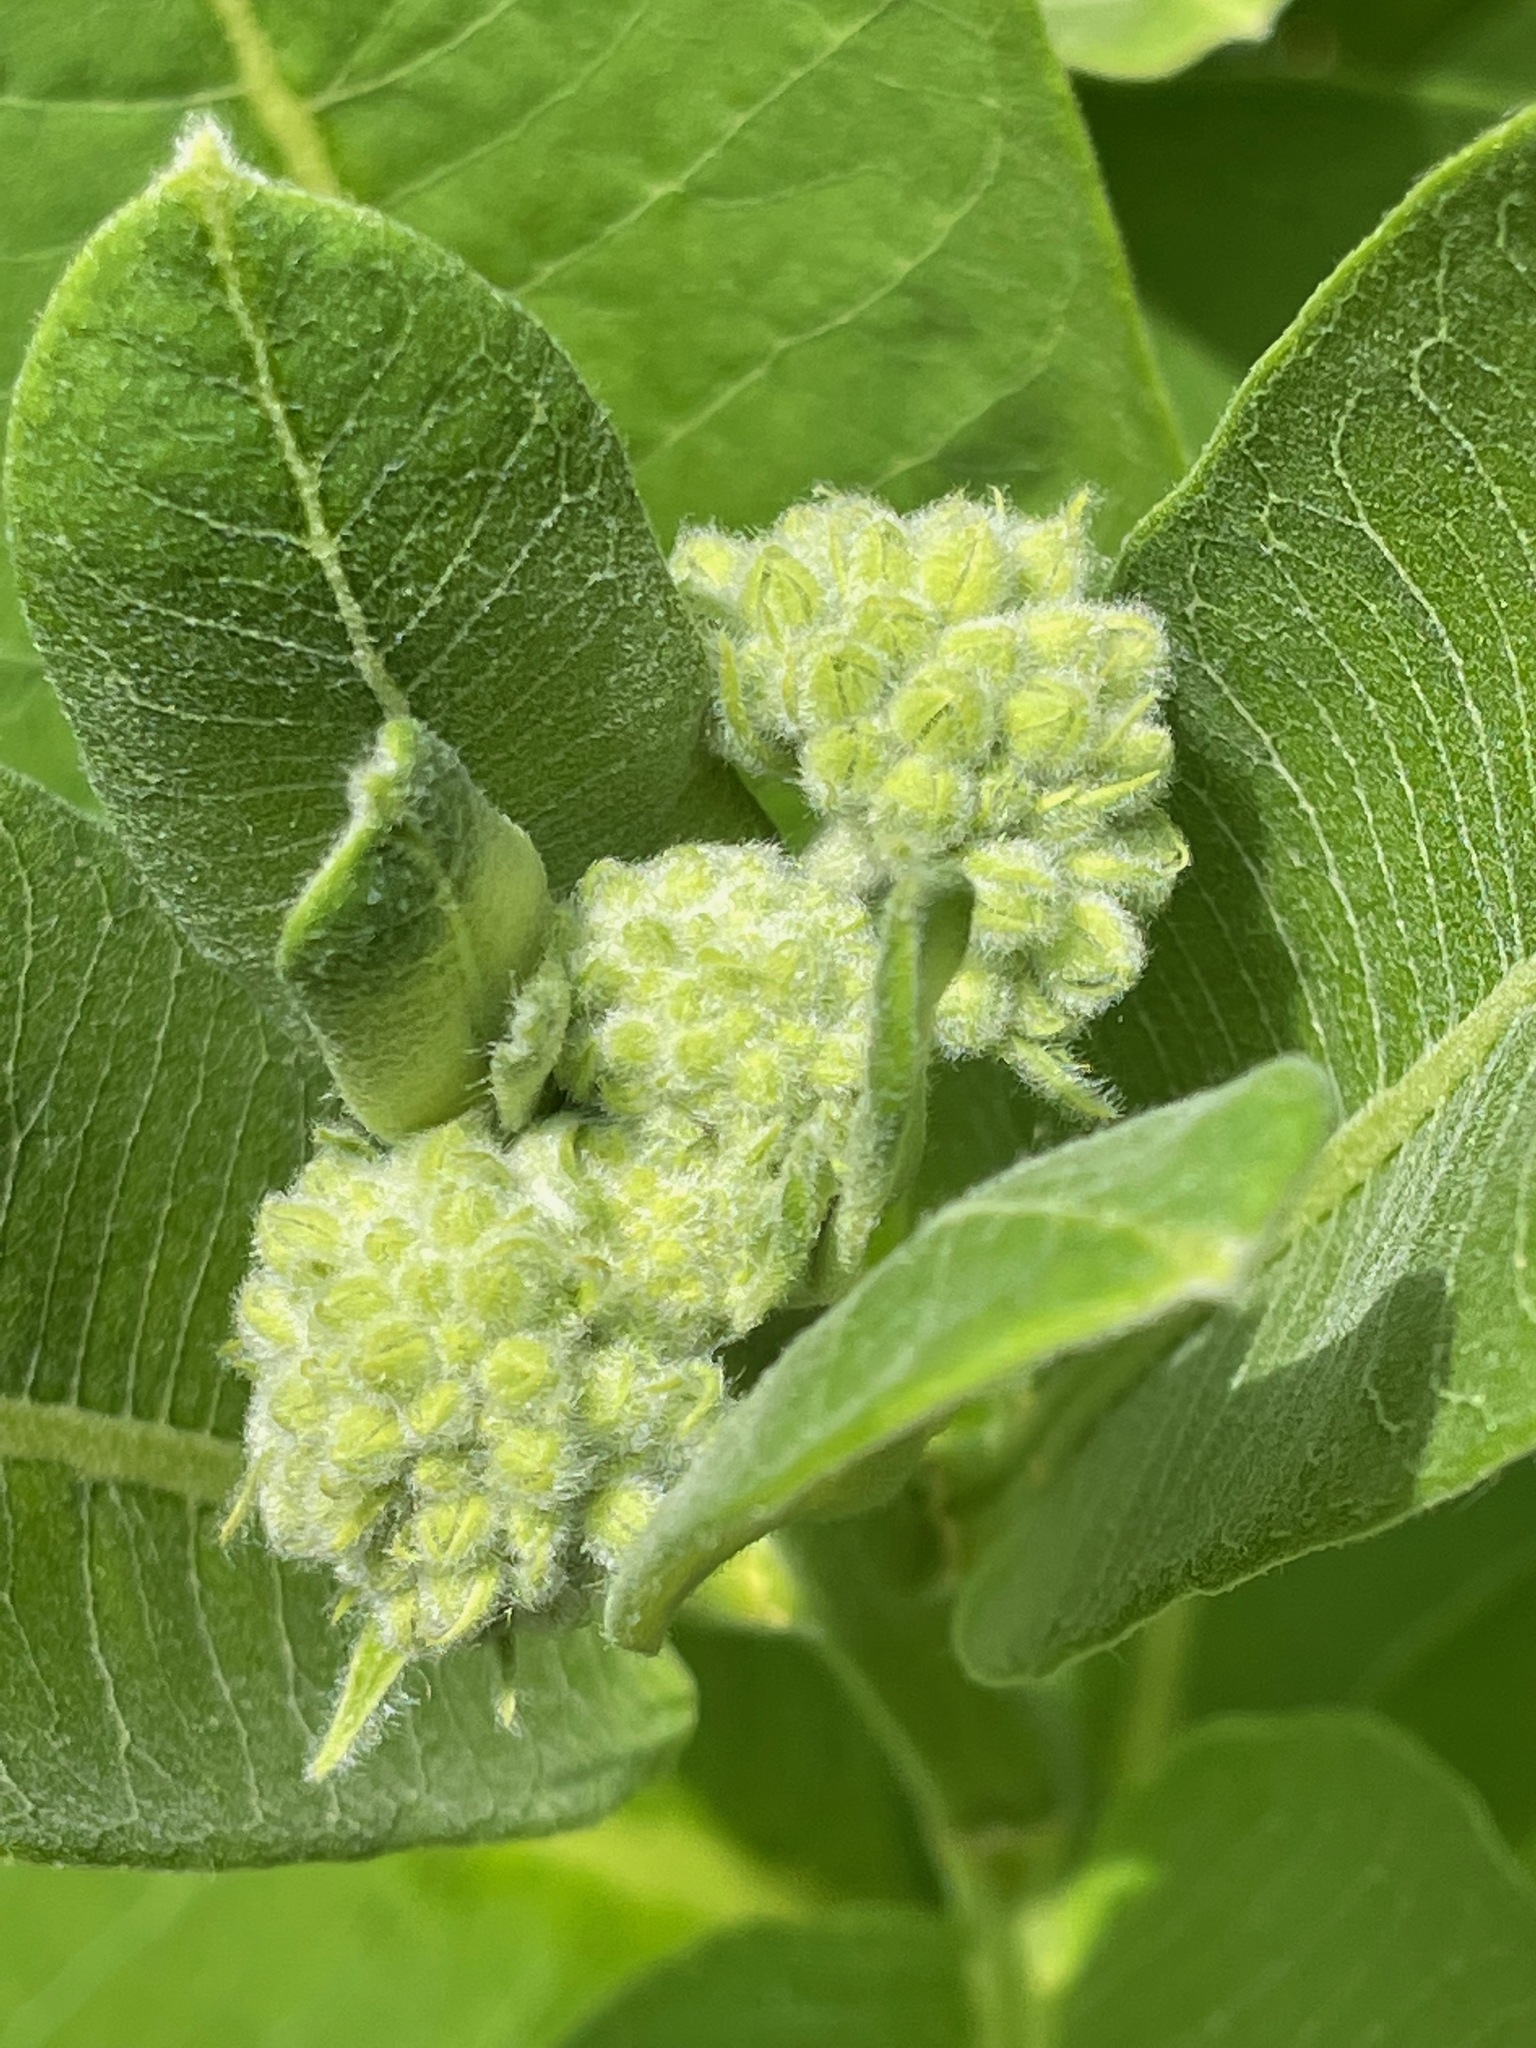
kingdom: Plantae
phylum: Tracheophyta
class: Magnoliopsida
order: Gentianales
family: Apocynaceae
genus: Asclepias
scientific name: Asclepias syriaca
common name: Common milkweed
